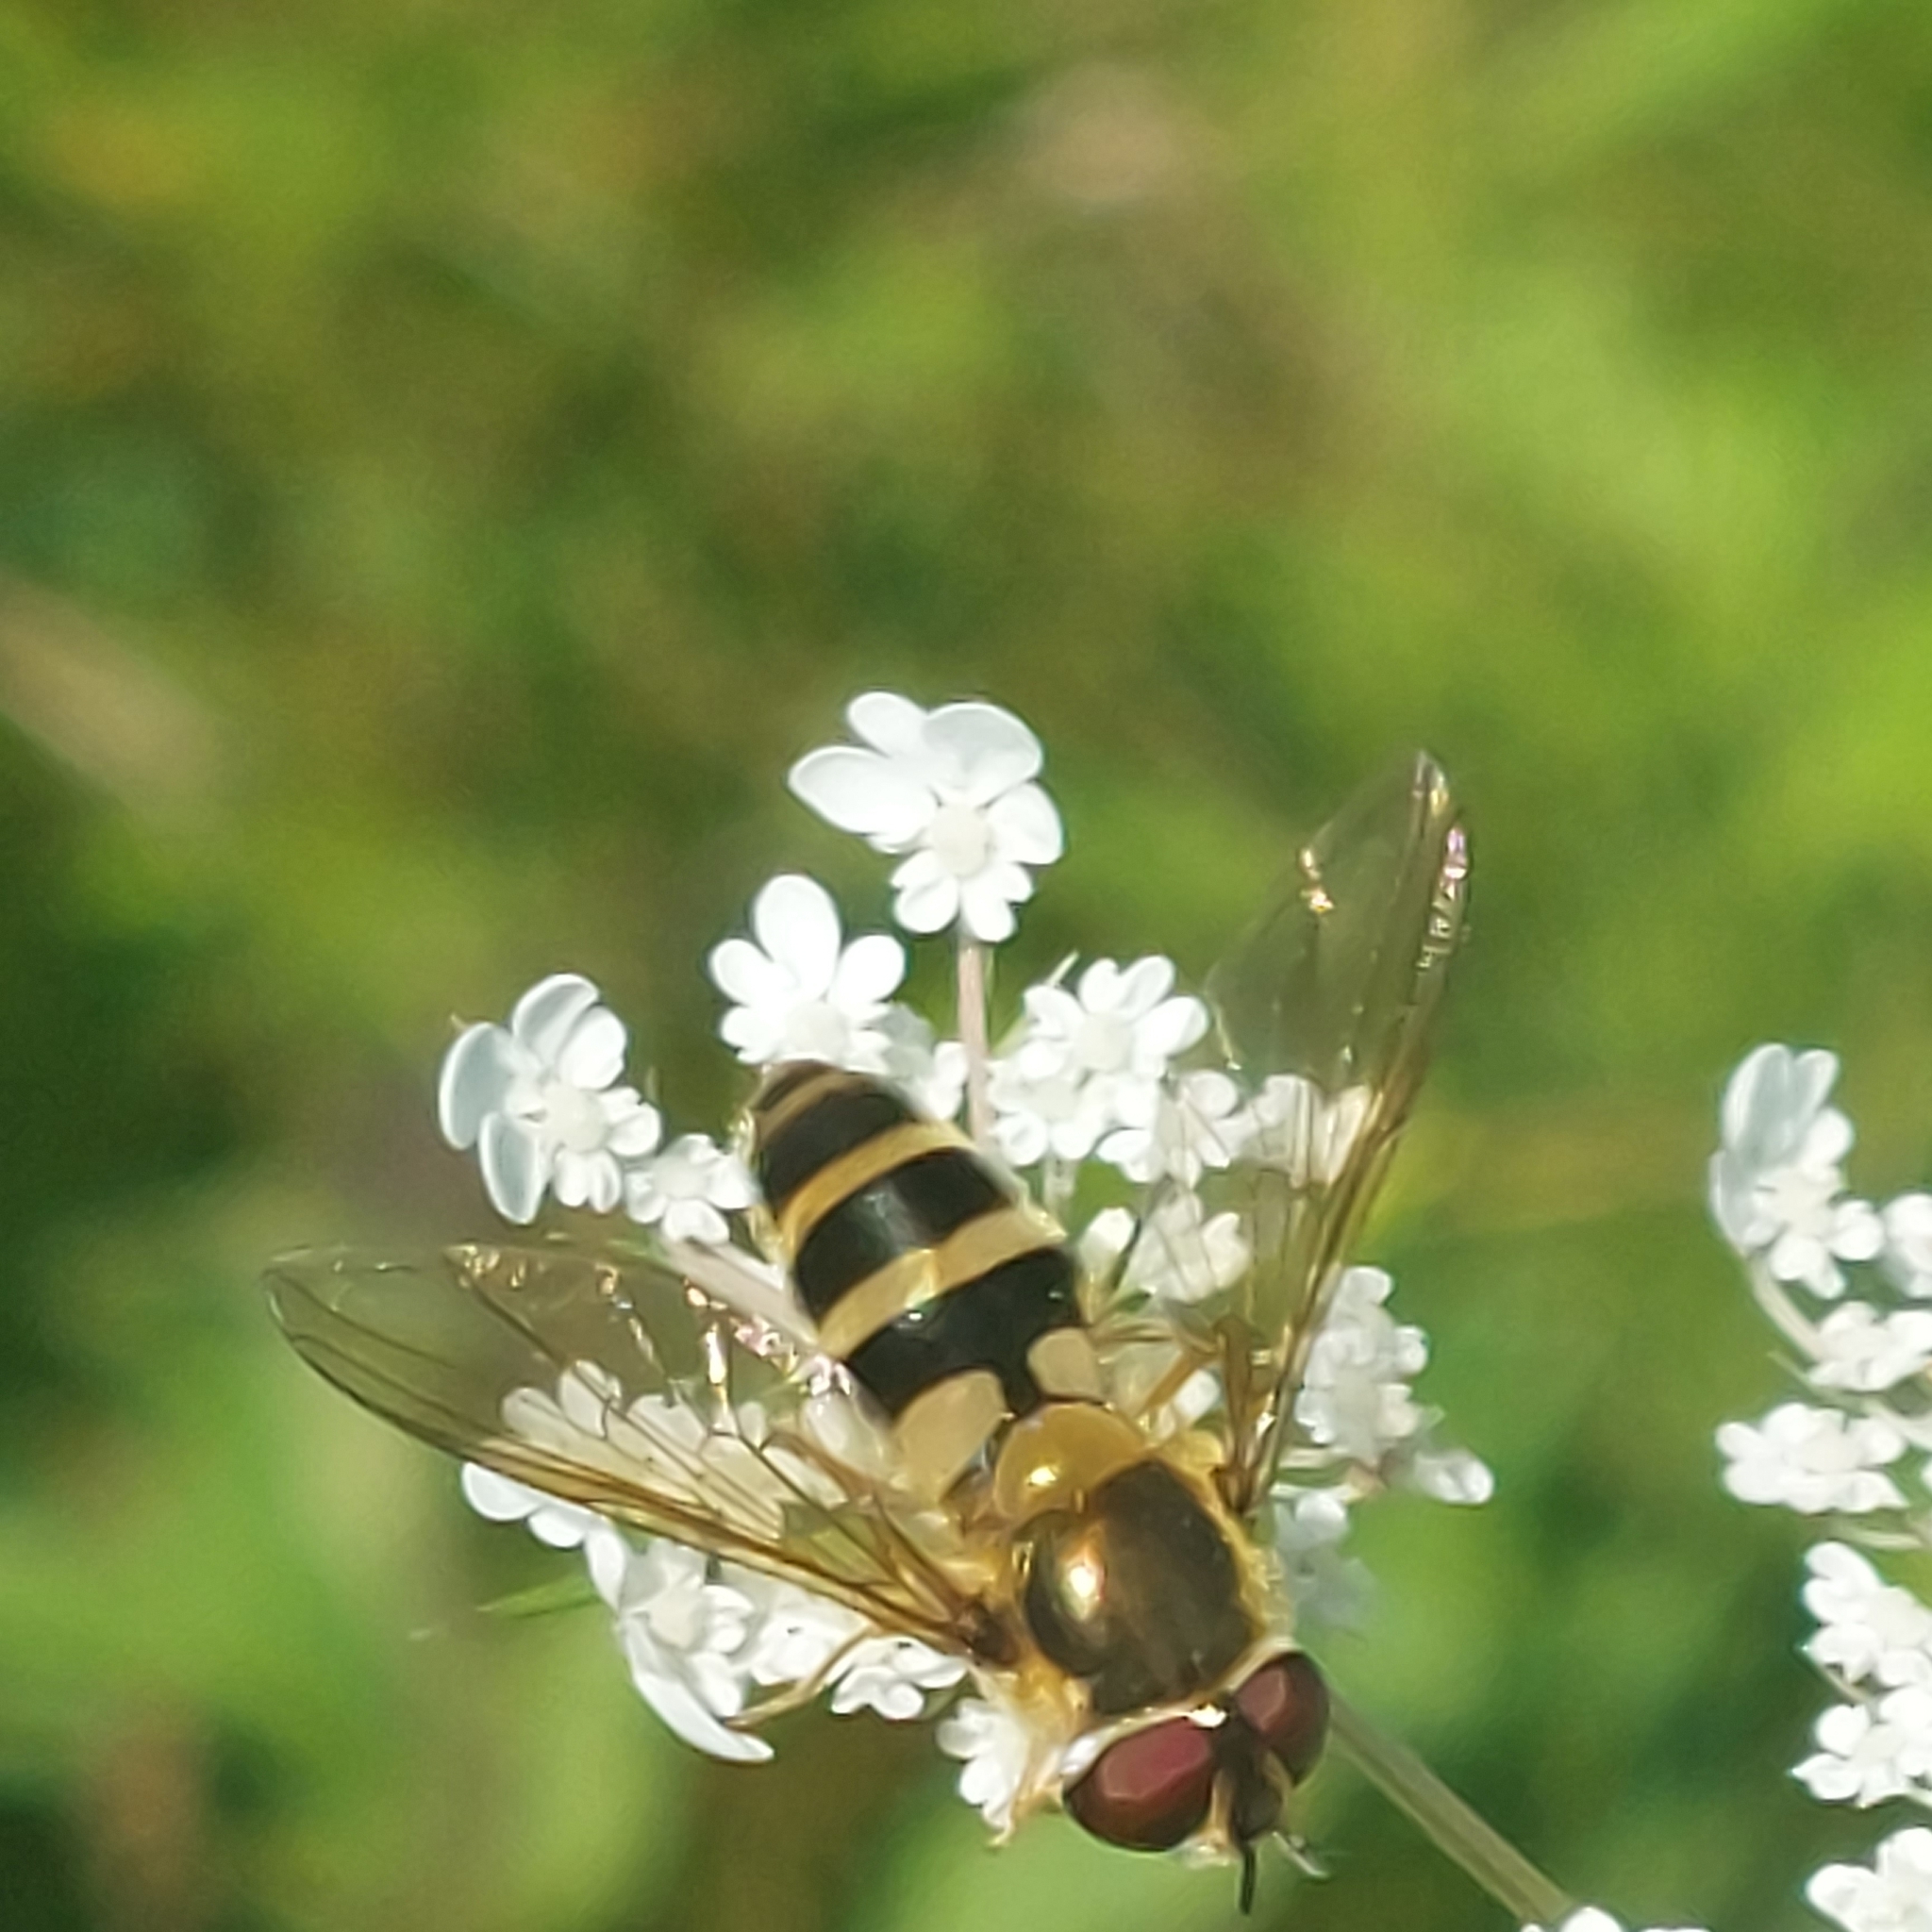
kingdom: Animalia
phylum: Arthropoda
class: Insecta
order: Diptera
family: Syrphidae
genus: Epistrophe
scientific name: Epistrophe grossulariae
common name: Black-horned smoothtail
